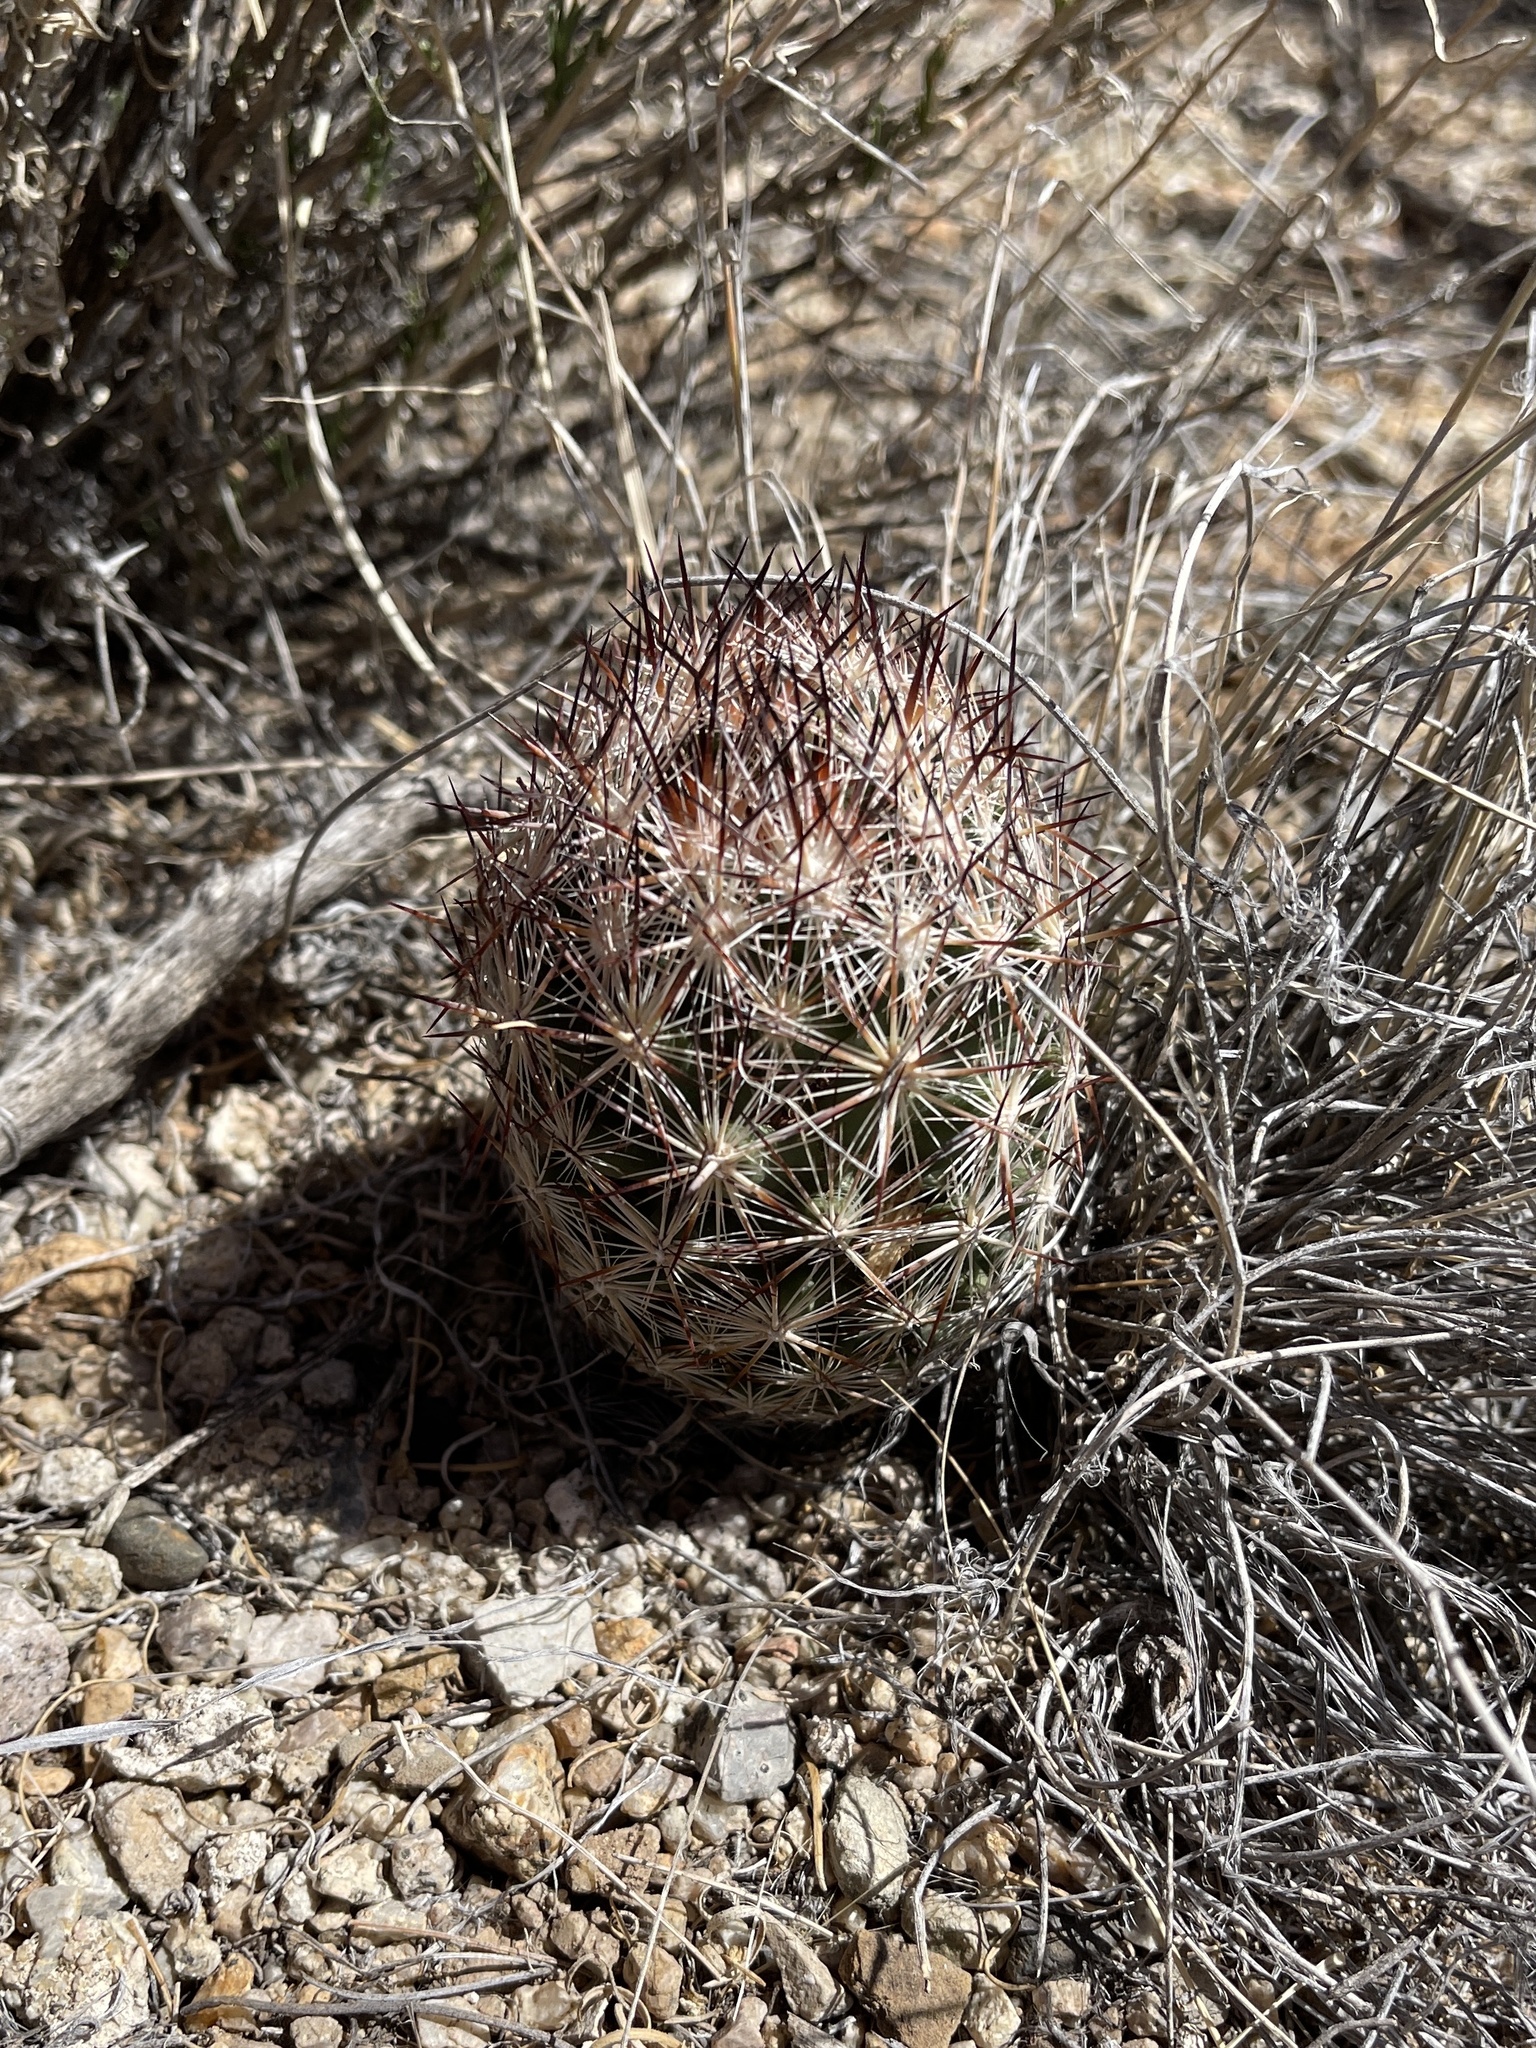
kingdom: Plantae
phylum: Tracheophyta
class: Magnoliopsida
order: Caryophyllales
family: Cactaceae
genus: Pelecyphora
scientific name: Pelecyphora vivipara
